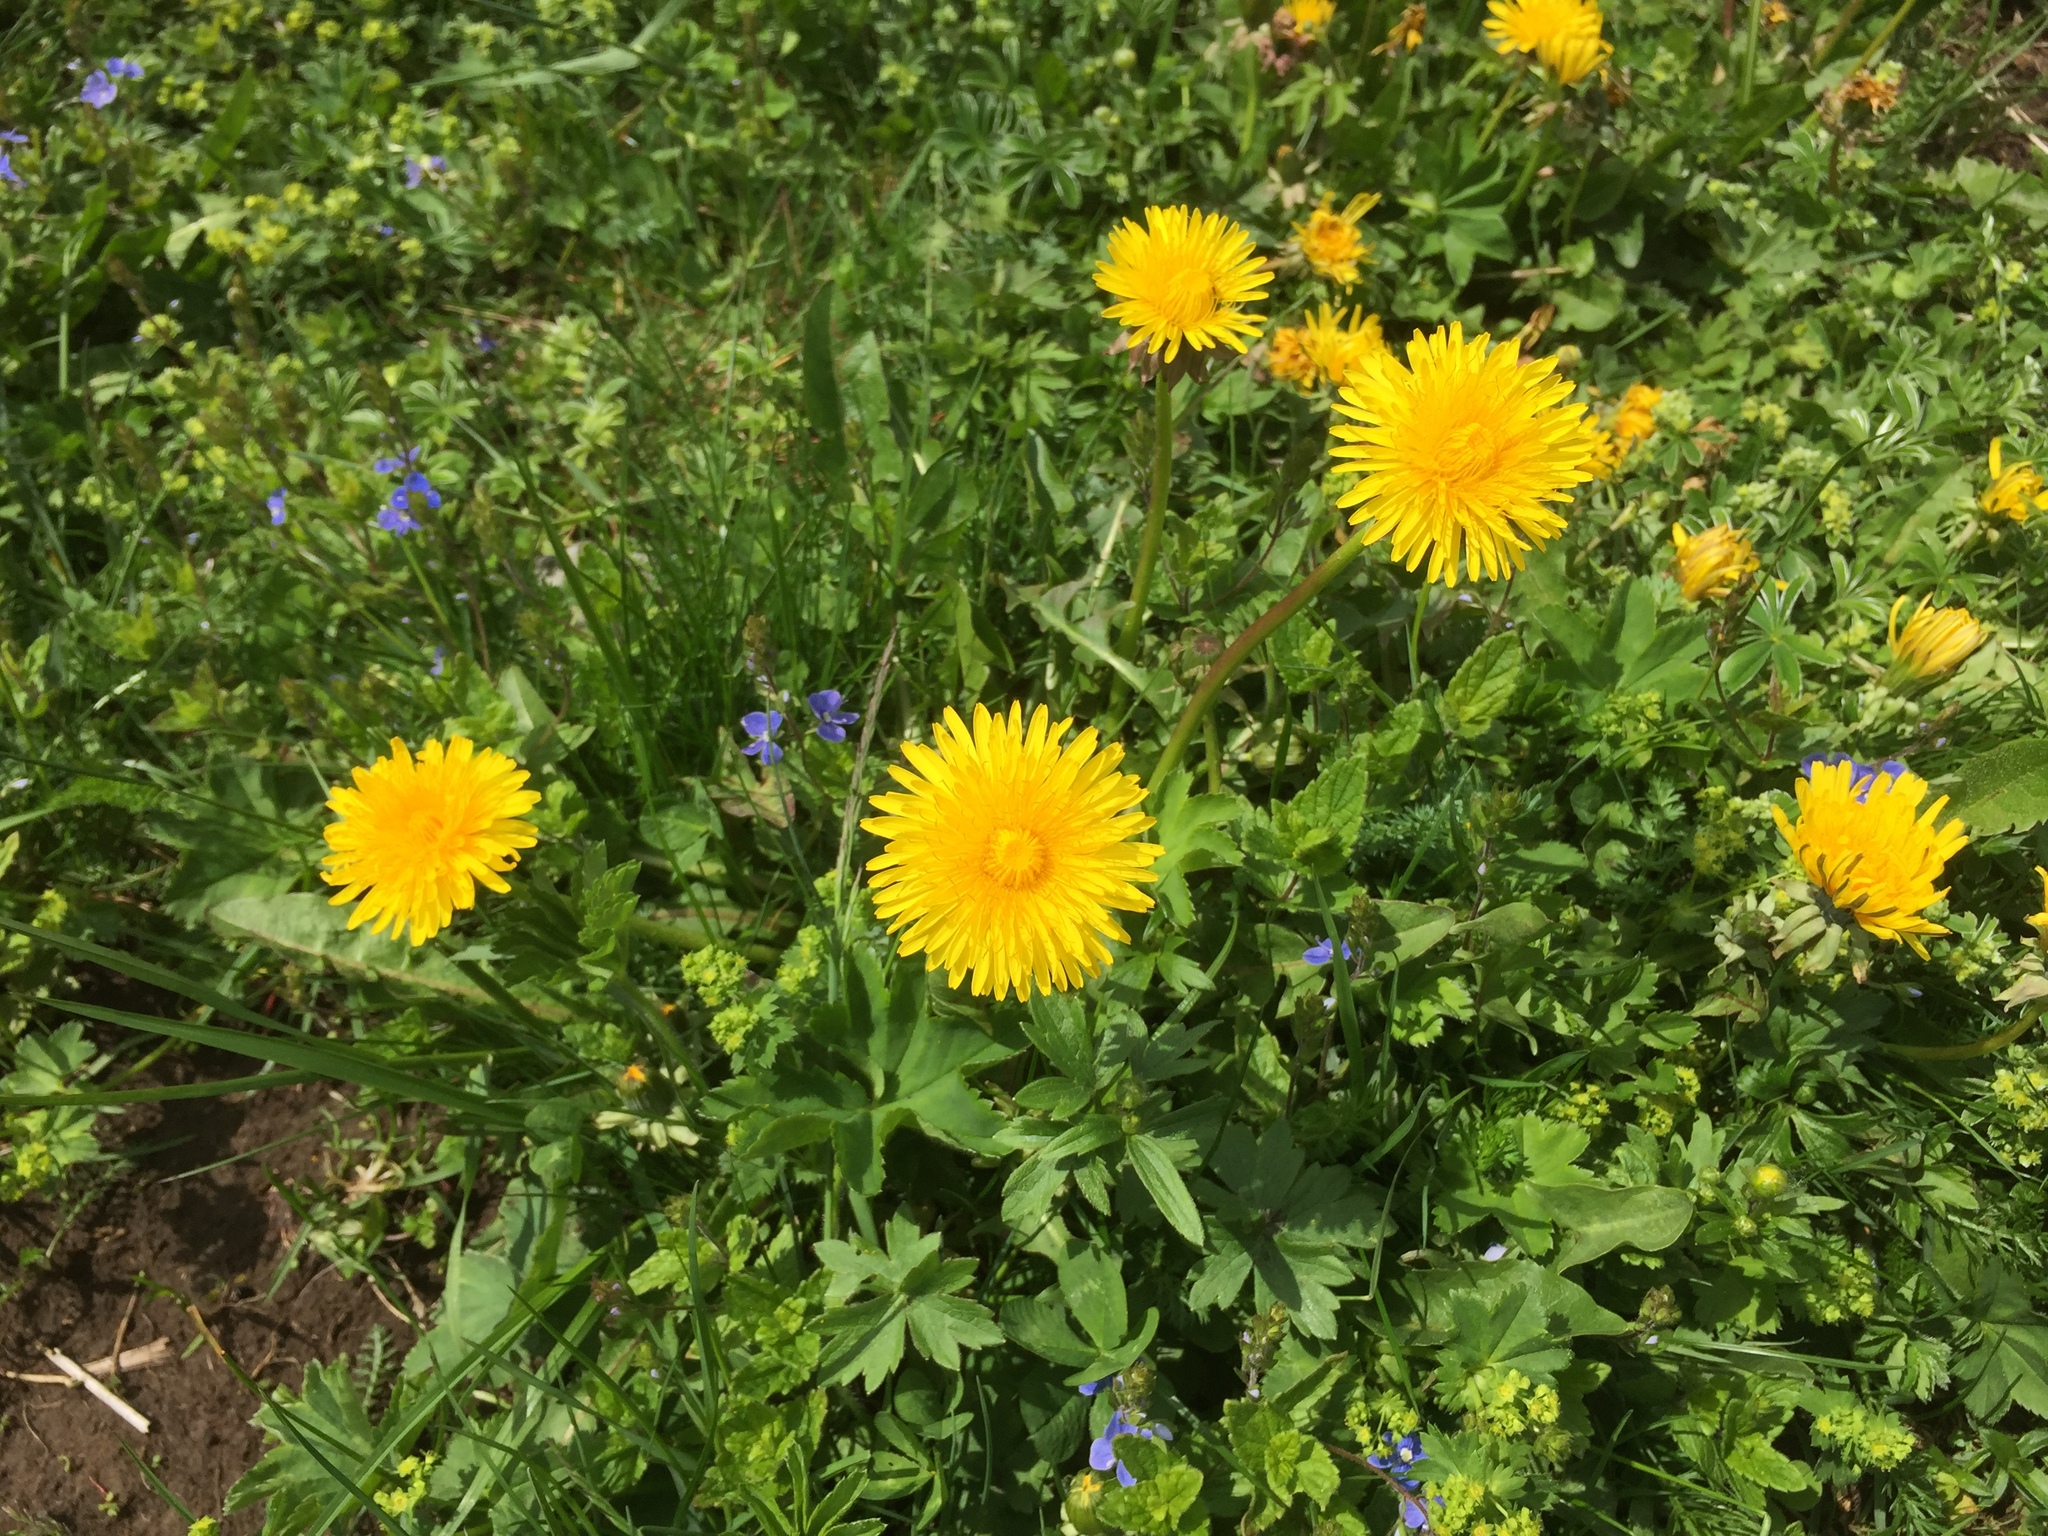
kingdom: Plantae
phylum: Tracheophyta
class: Magnoliopsida
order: Asterales
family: Asteraceae
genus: Taraxacum
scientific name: Taraxacum officinale
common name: Common dandelion
